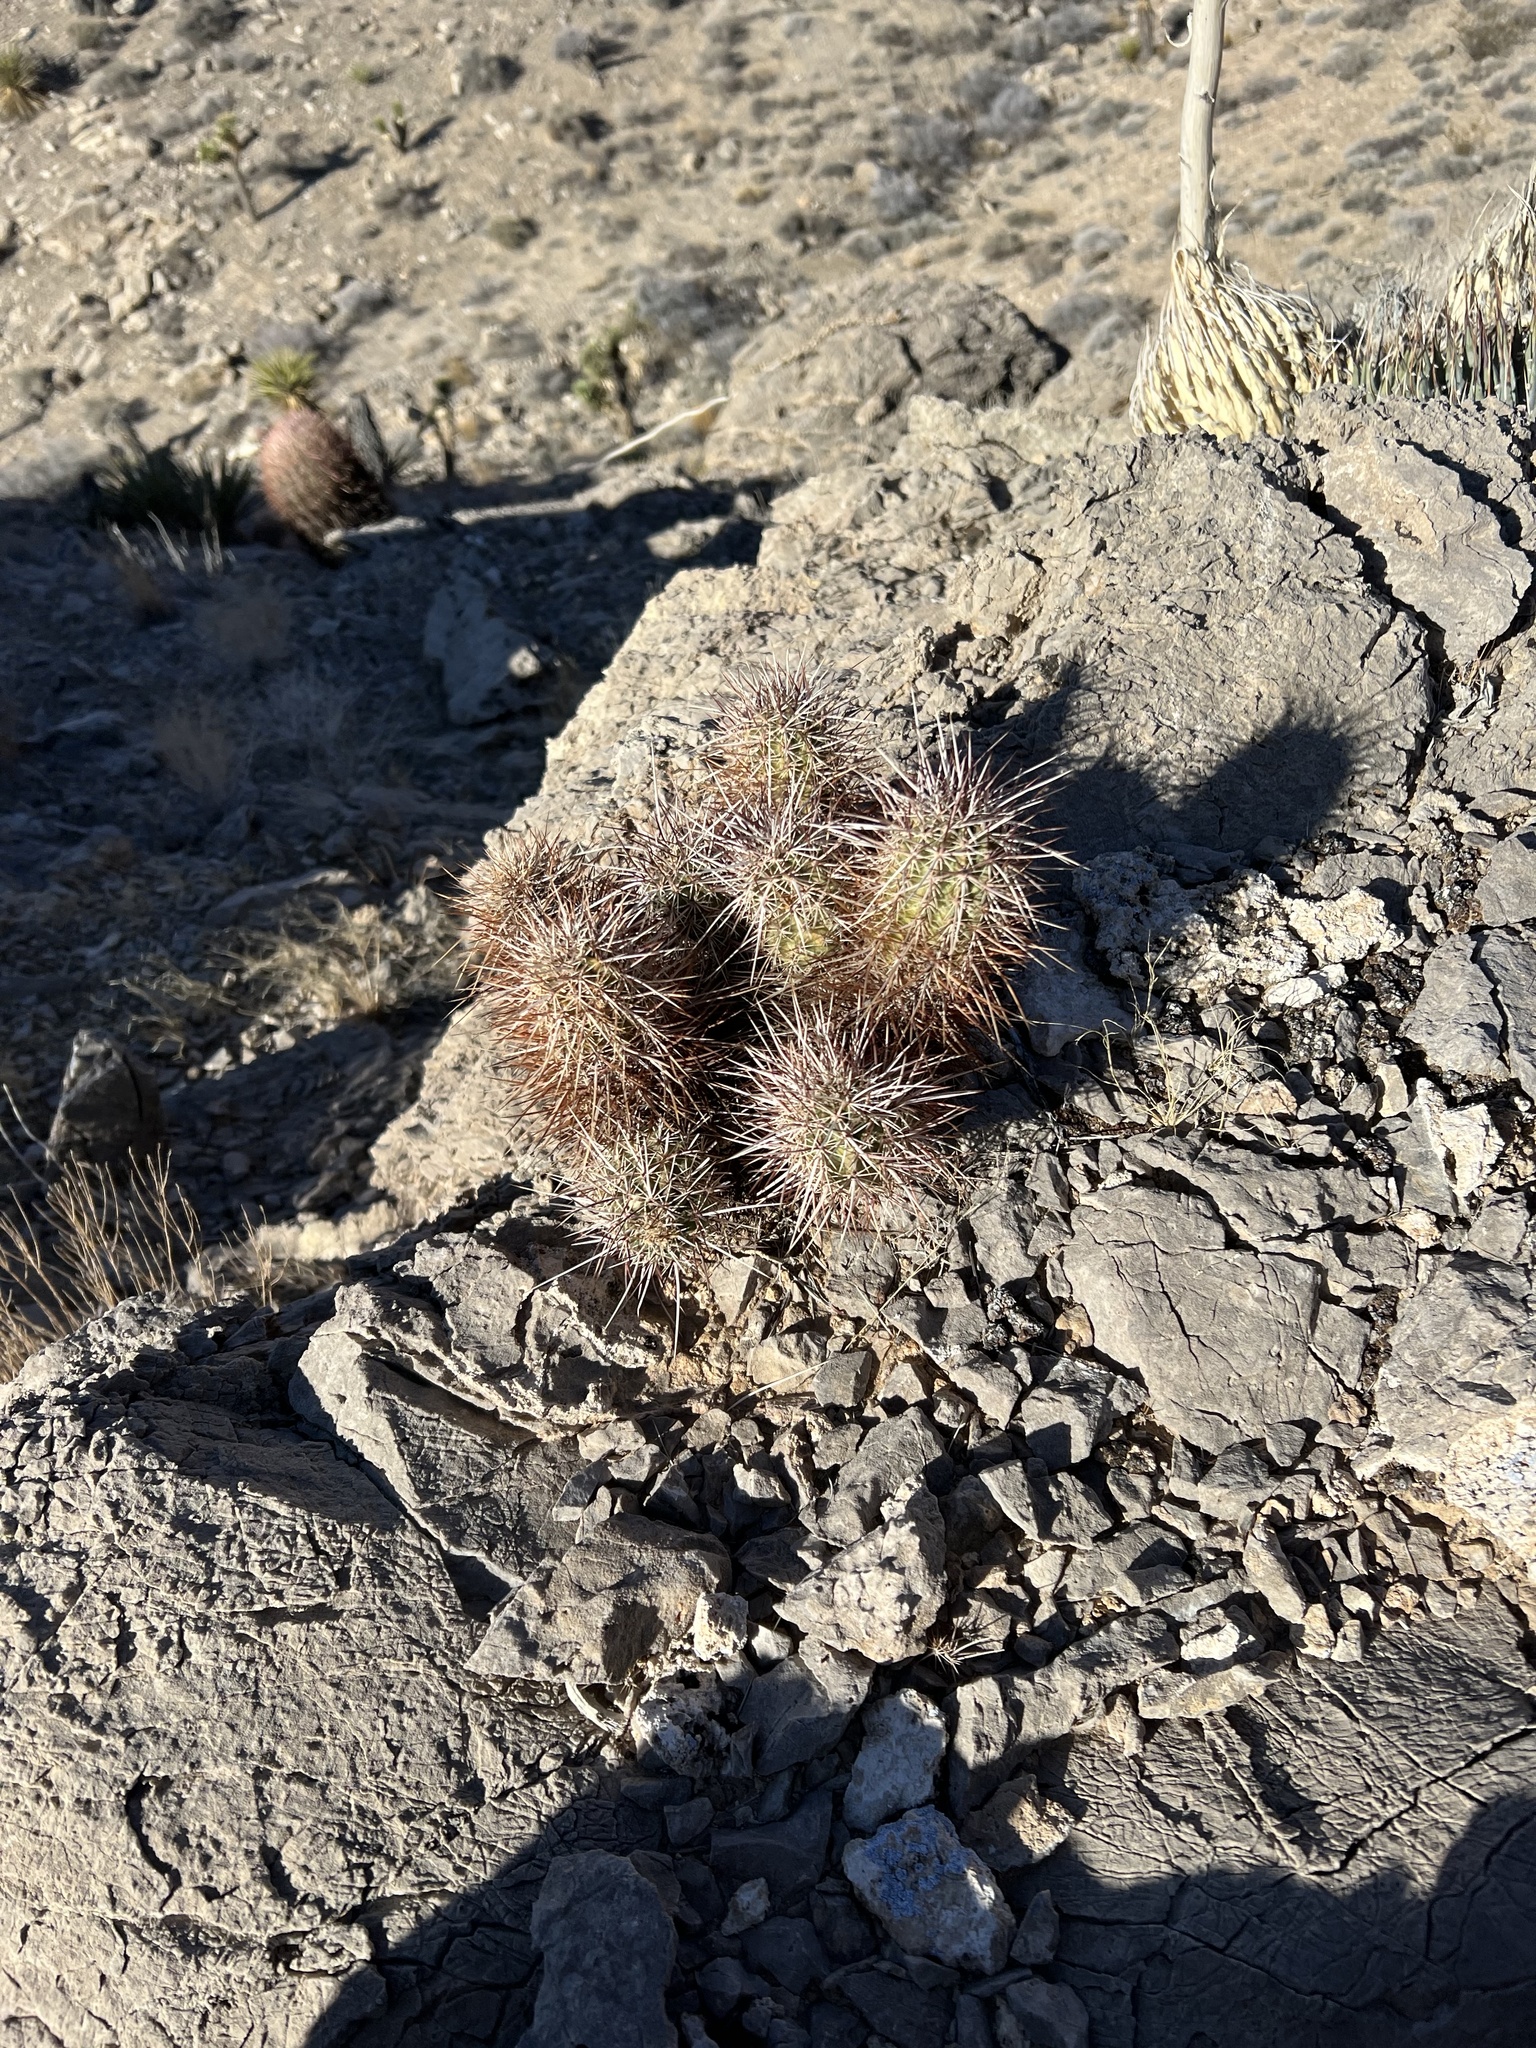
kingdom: Plantae
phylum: Tracheophyta
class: Magnoliopsida
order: Caryophyllales
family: Cactaceae
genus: Echinocereus
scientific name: Echinocereus engelmannii
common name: Engelmann's hedgehog cactus
